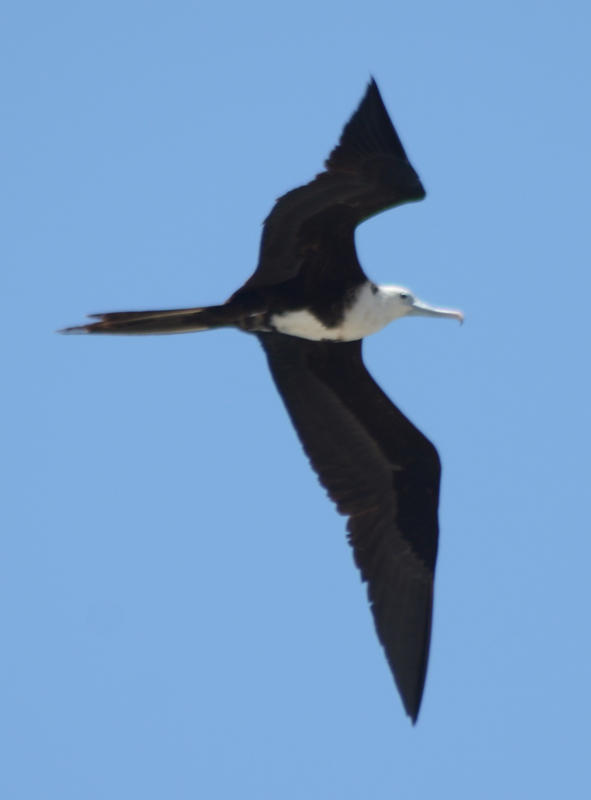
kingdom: Animalia
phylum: Chordata
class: Aves
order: Suliformes
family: Fregatidae
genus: Fregata
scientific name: Fregata magnificens
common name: Magnificent frigatebird
